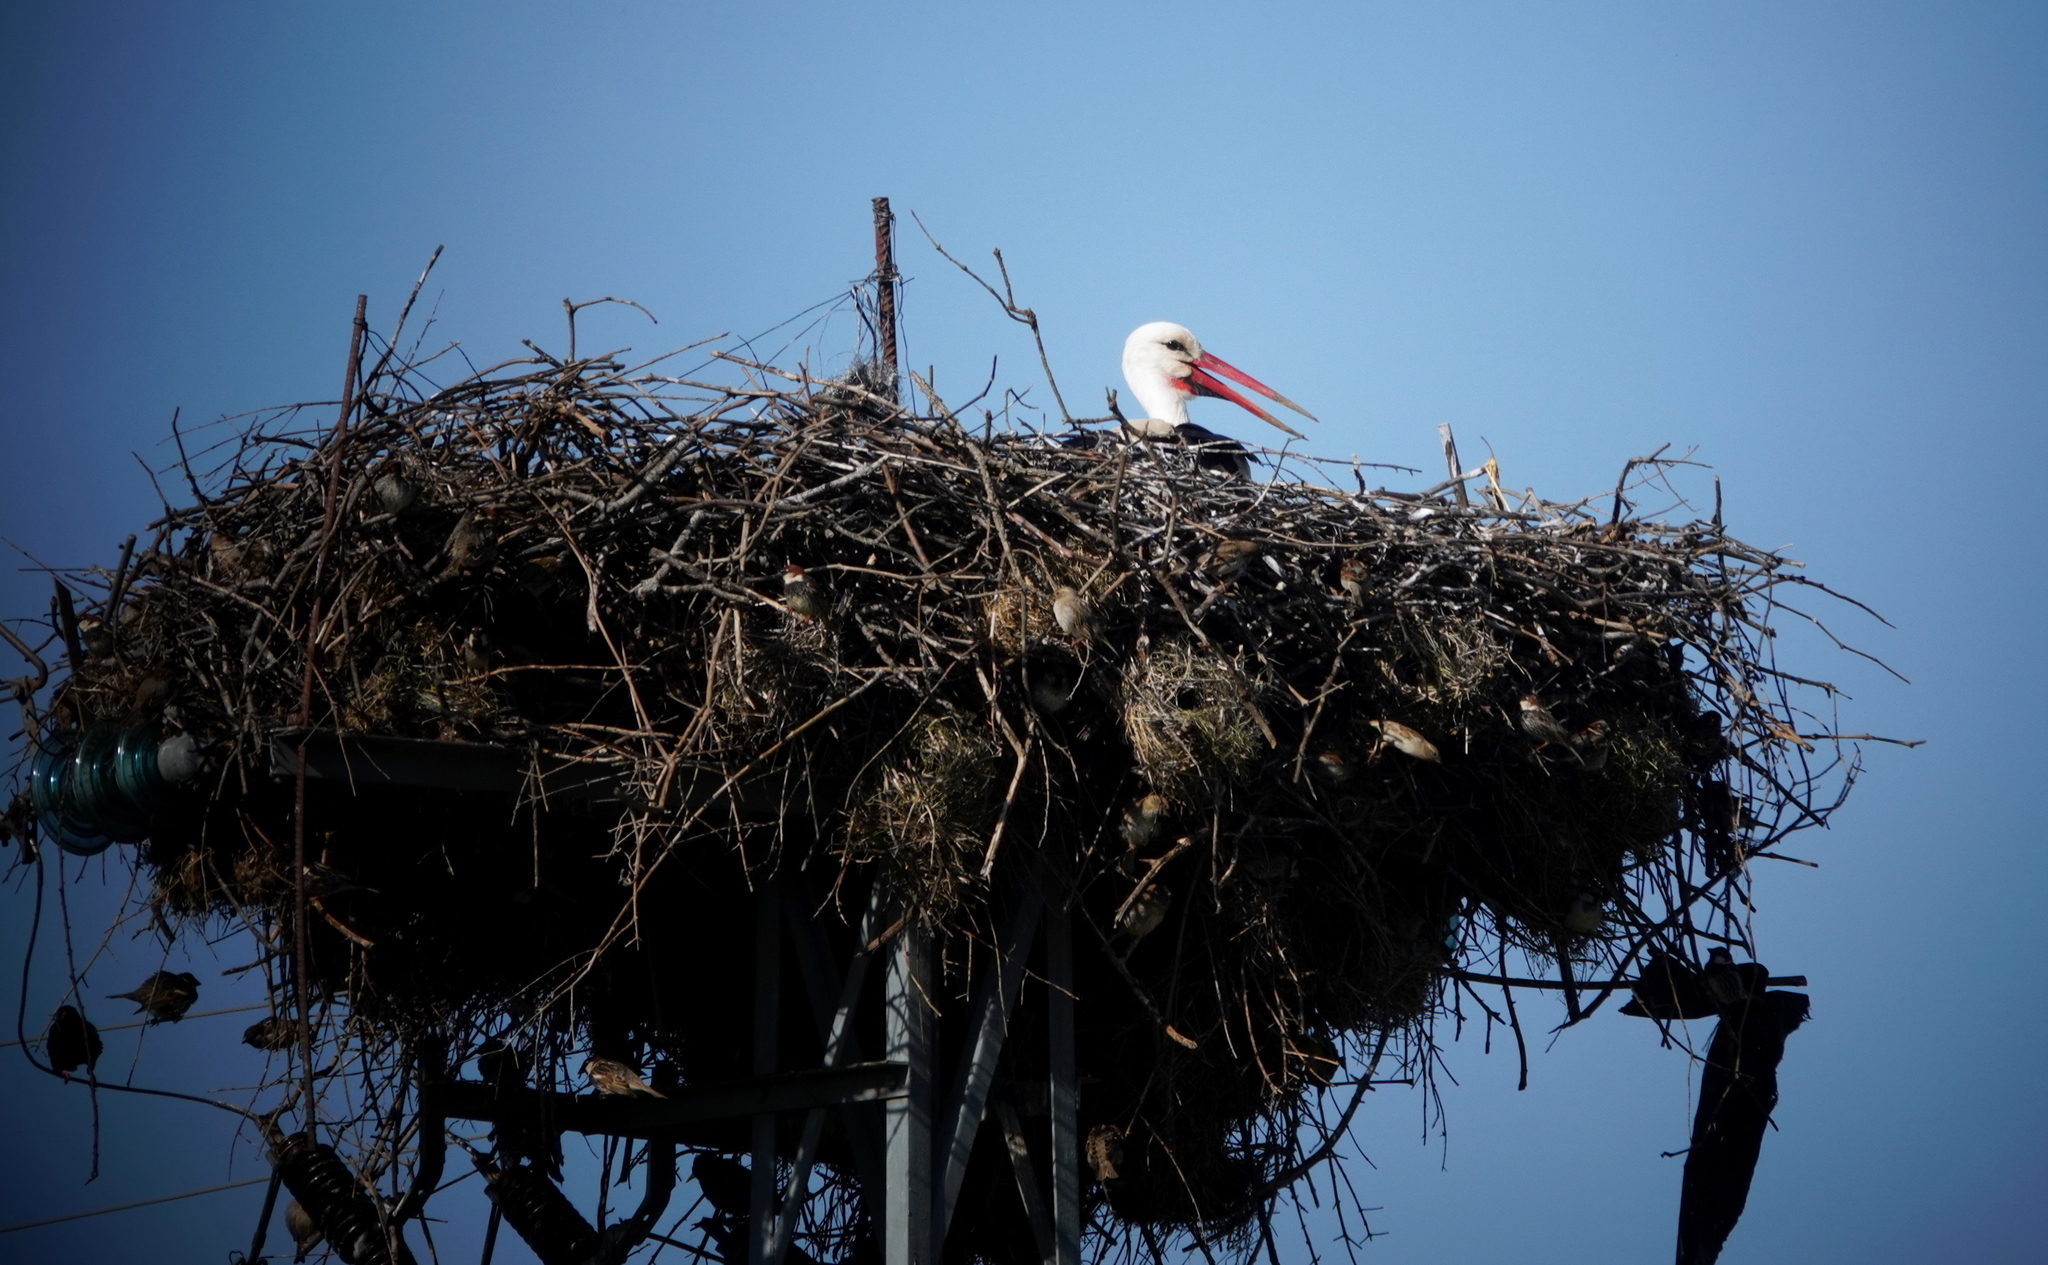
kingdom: Animalia
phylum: Chordata
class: Aves
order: Ciconiiformes
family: Ciconiidae
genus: Ciconia
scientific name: Ciconia ciconia
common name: White stork
